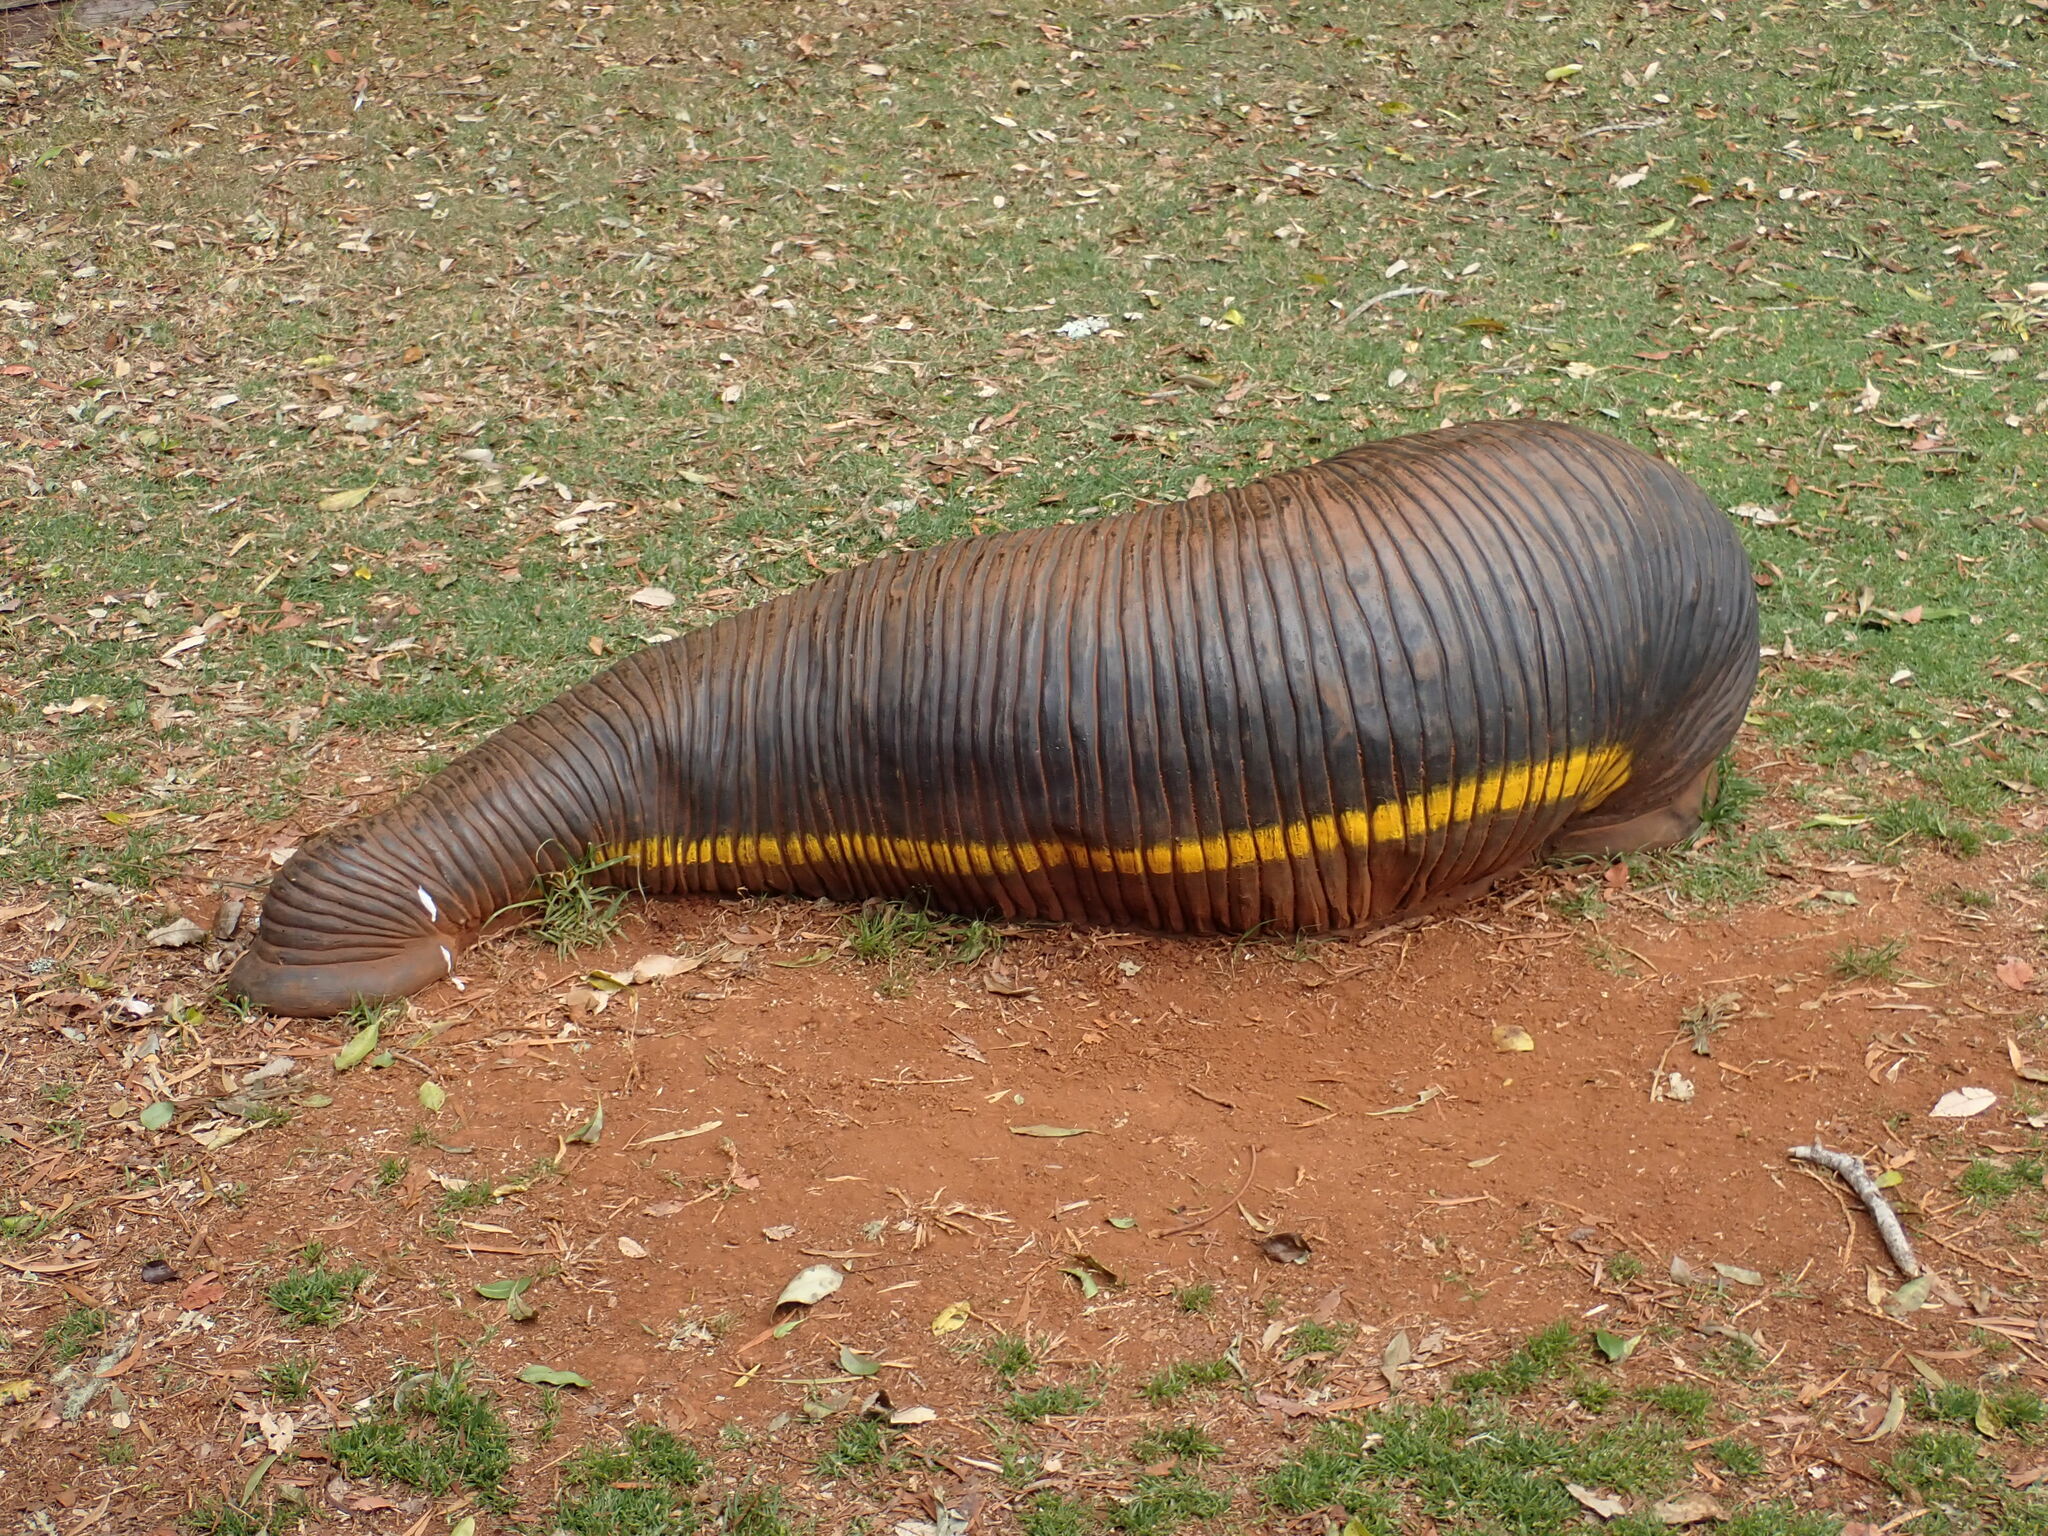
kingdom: Plantae
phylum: Tracheophyta
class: Polypodiopsida
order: Polypodiales
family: Aspleniaceae
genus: Asplenium
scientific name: Asplenium australasicum
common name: Bird's-nest fern
